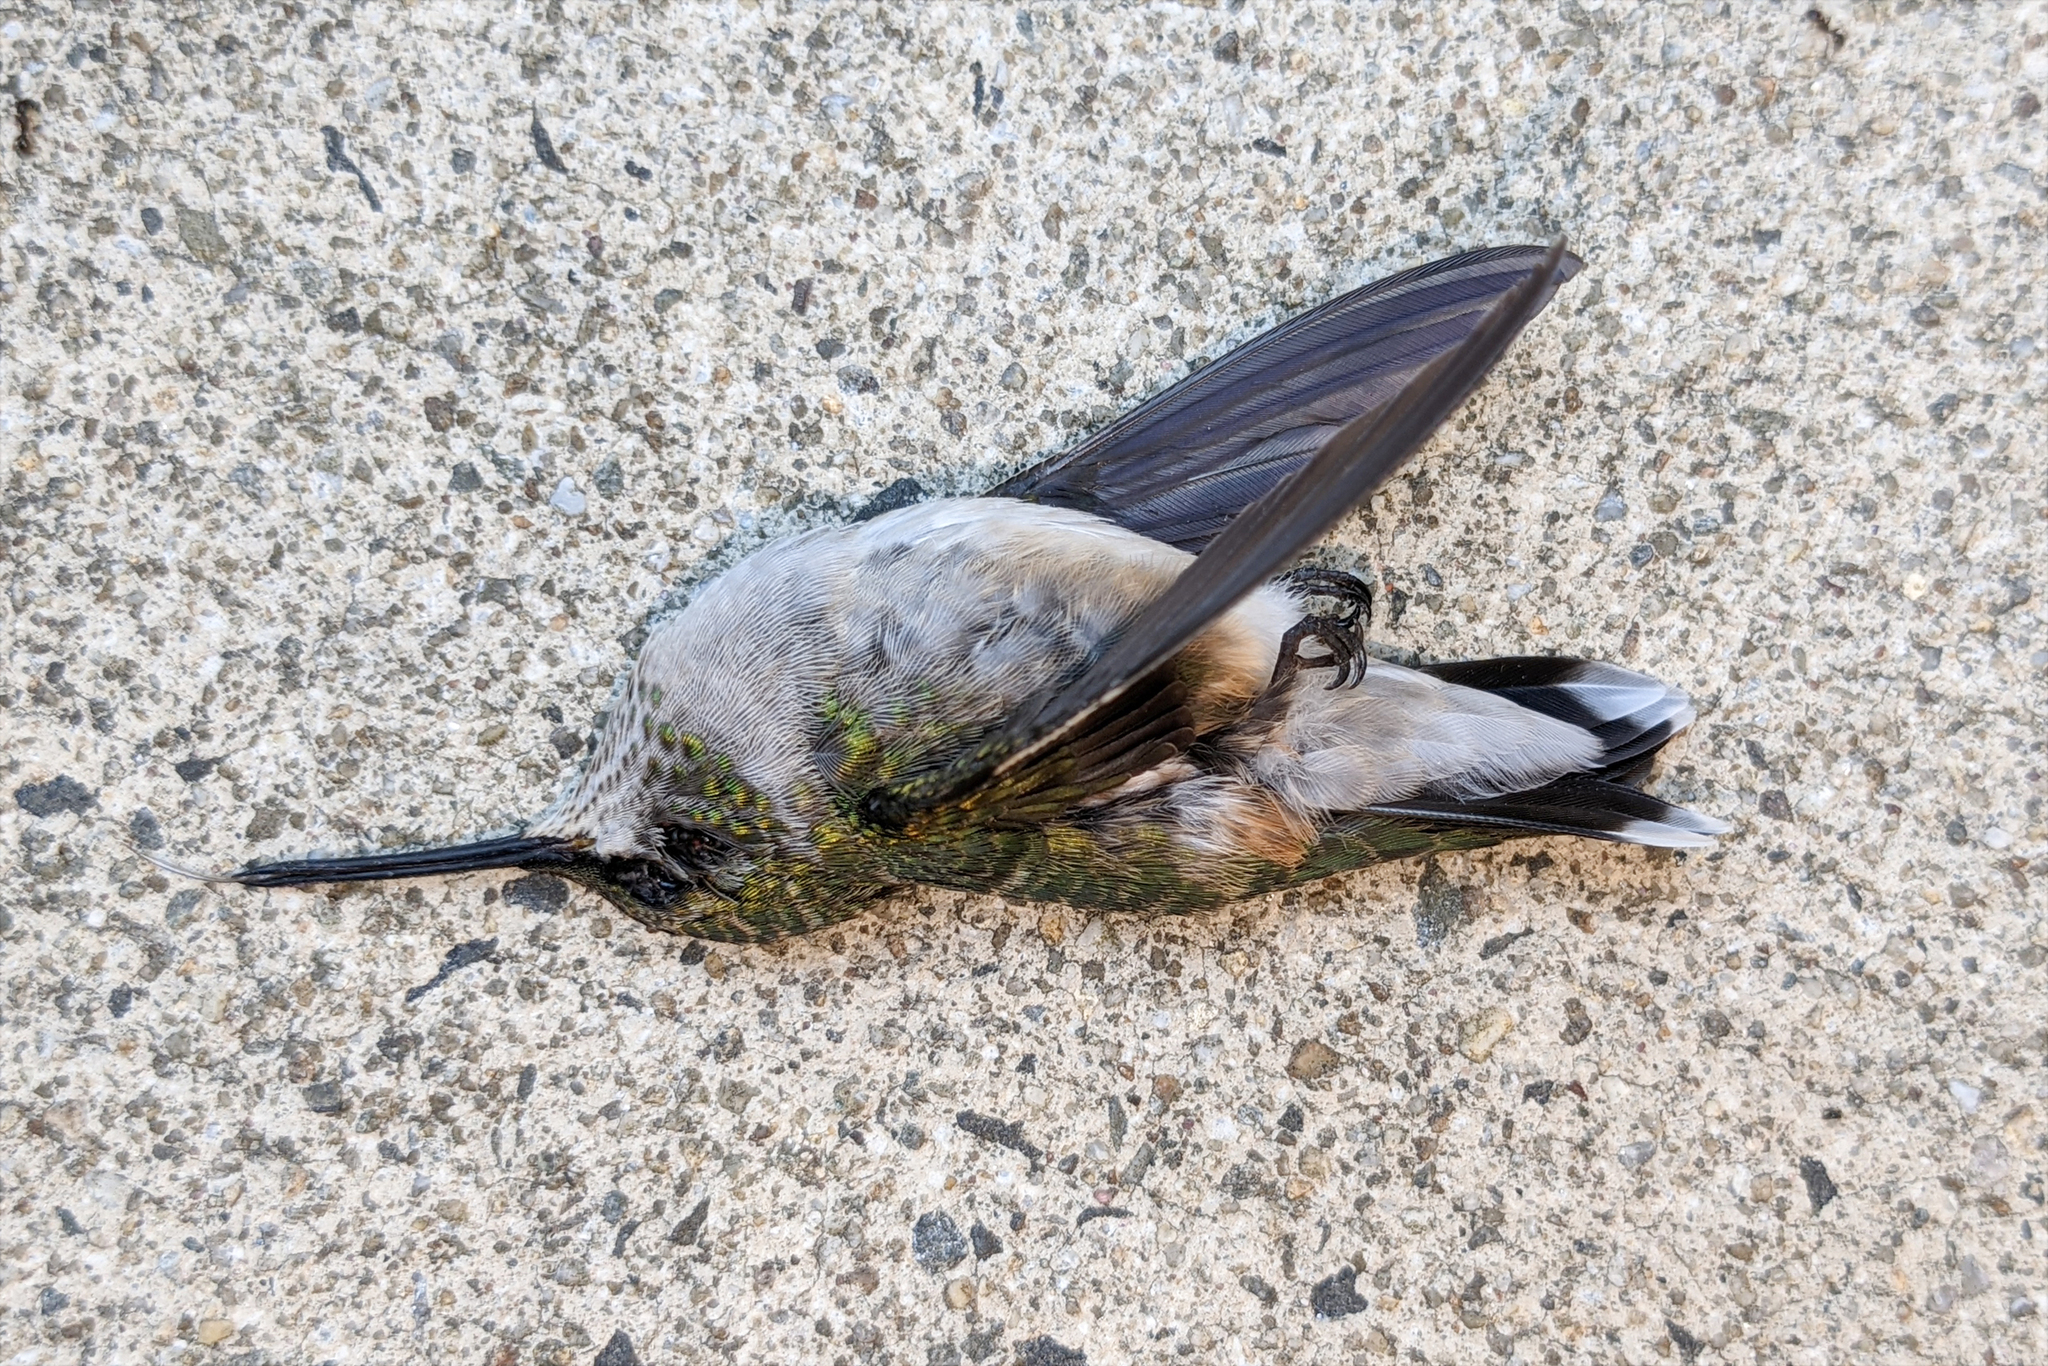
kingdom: Animalia
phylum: Chordata
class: Aves
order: Apodiformes
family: Trochilidae
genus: Archilochus
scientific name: Archilochus colubris
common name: Ruby-throated hummingbird
